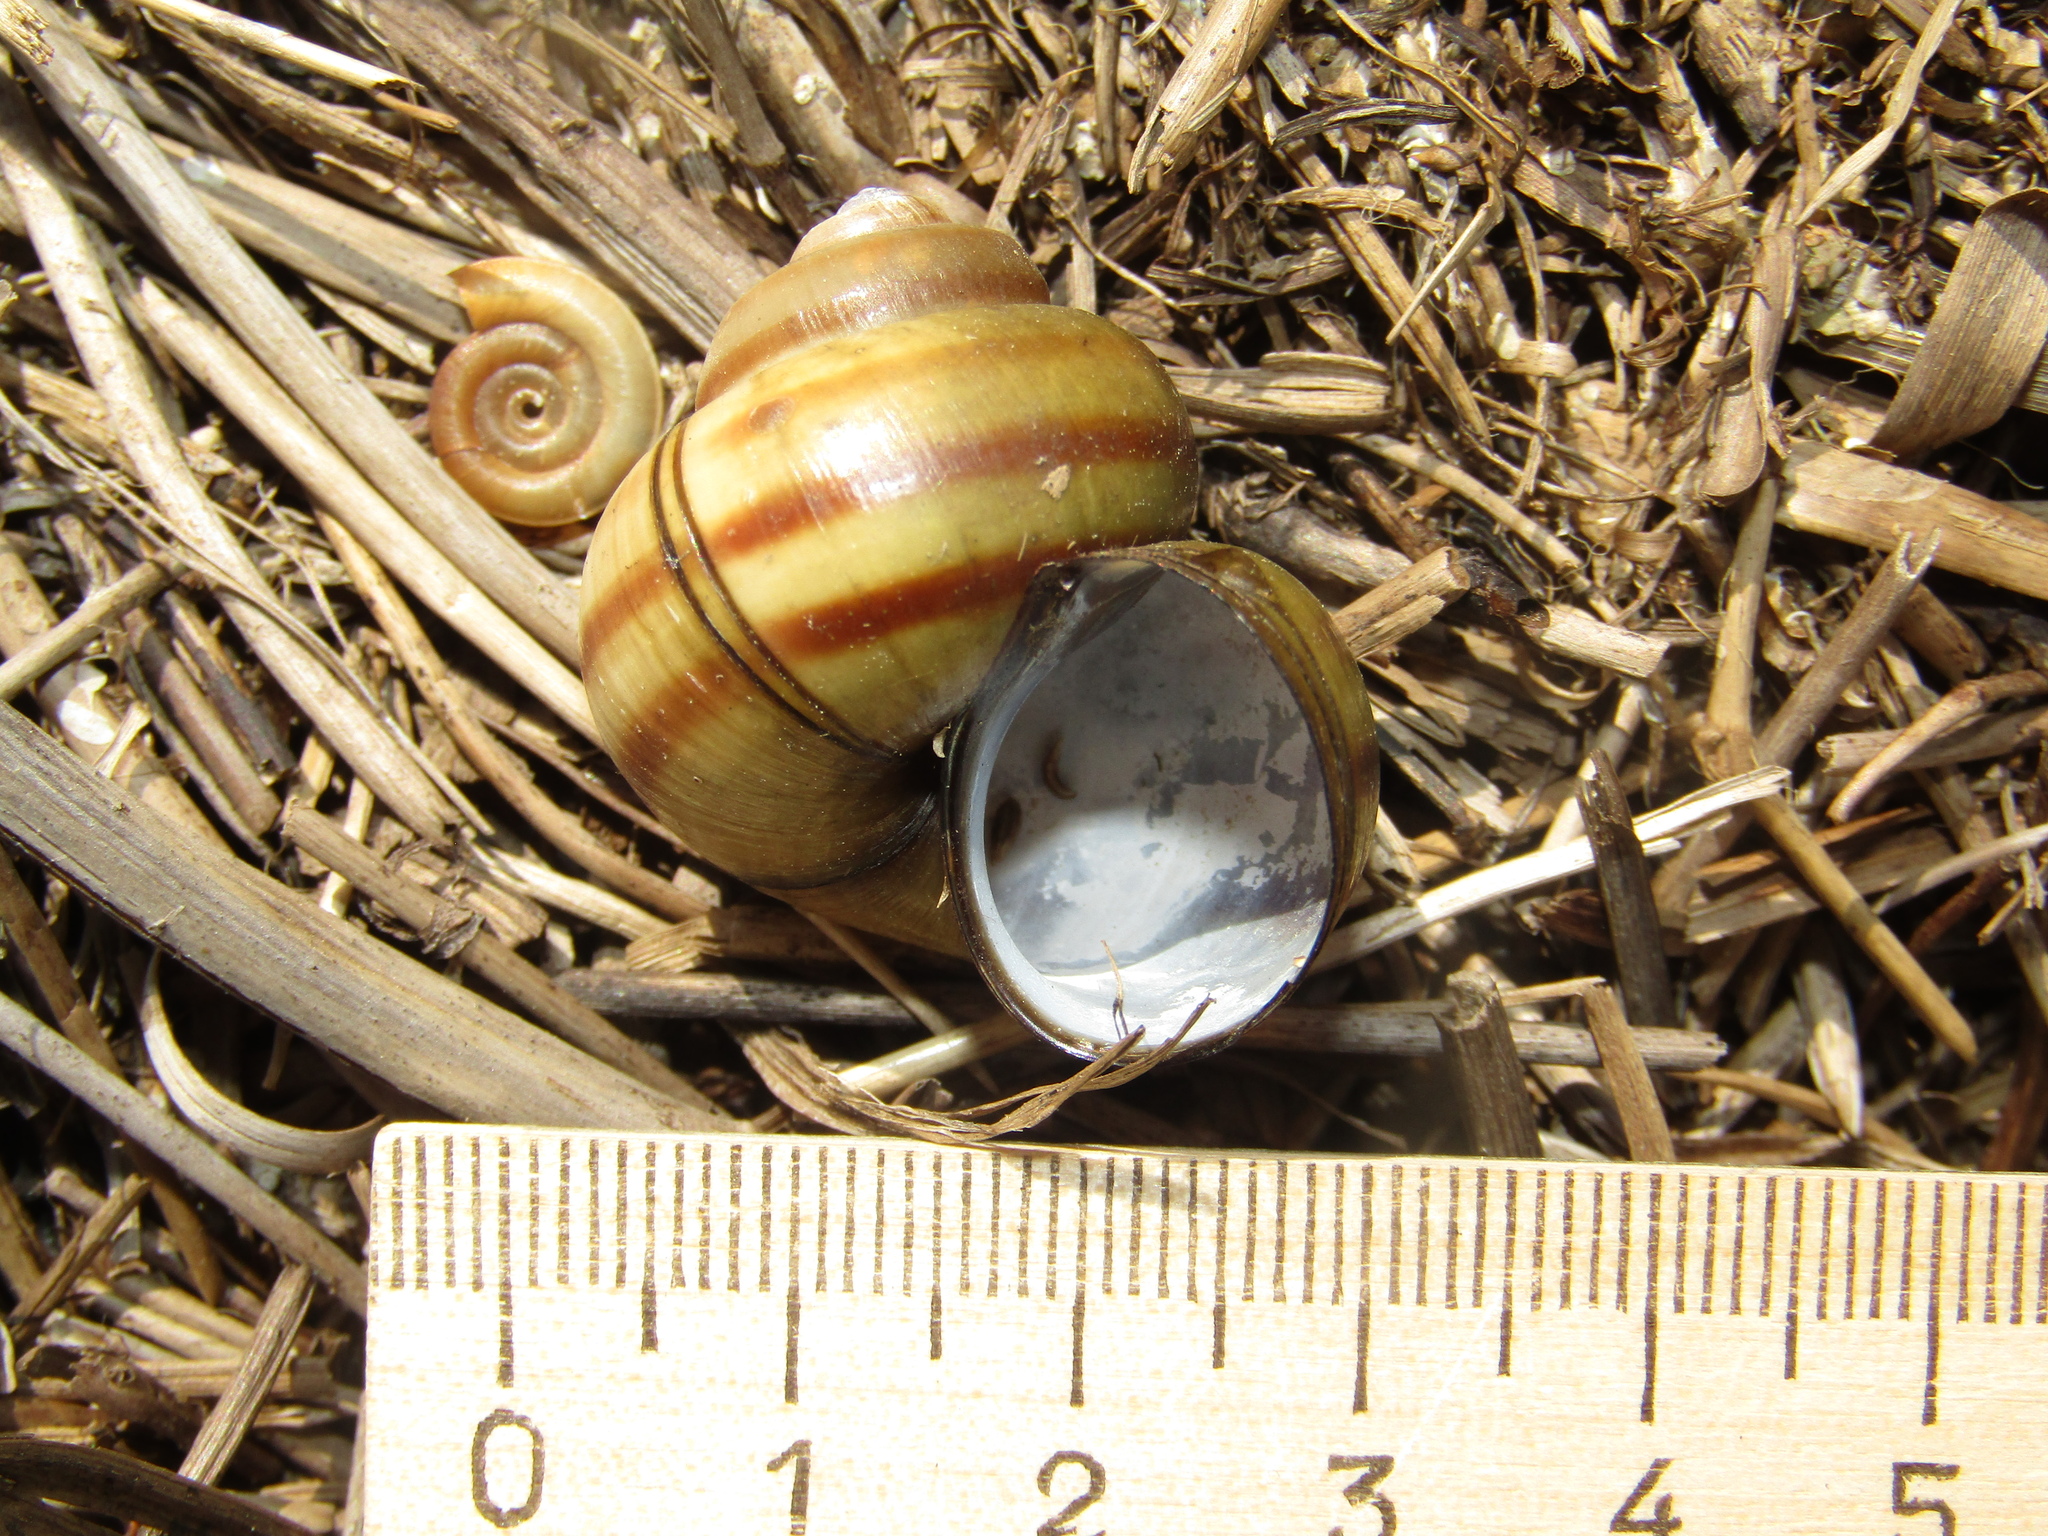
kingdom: Animalia
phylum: Mollusca
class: Gastropoda
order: Architaenioglossa
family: Viviparidae
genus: Viviparus
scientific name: Viviparus contectus
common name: Lister's river snail
